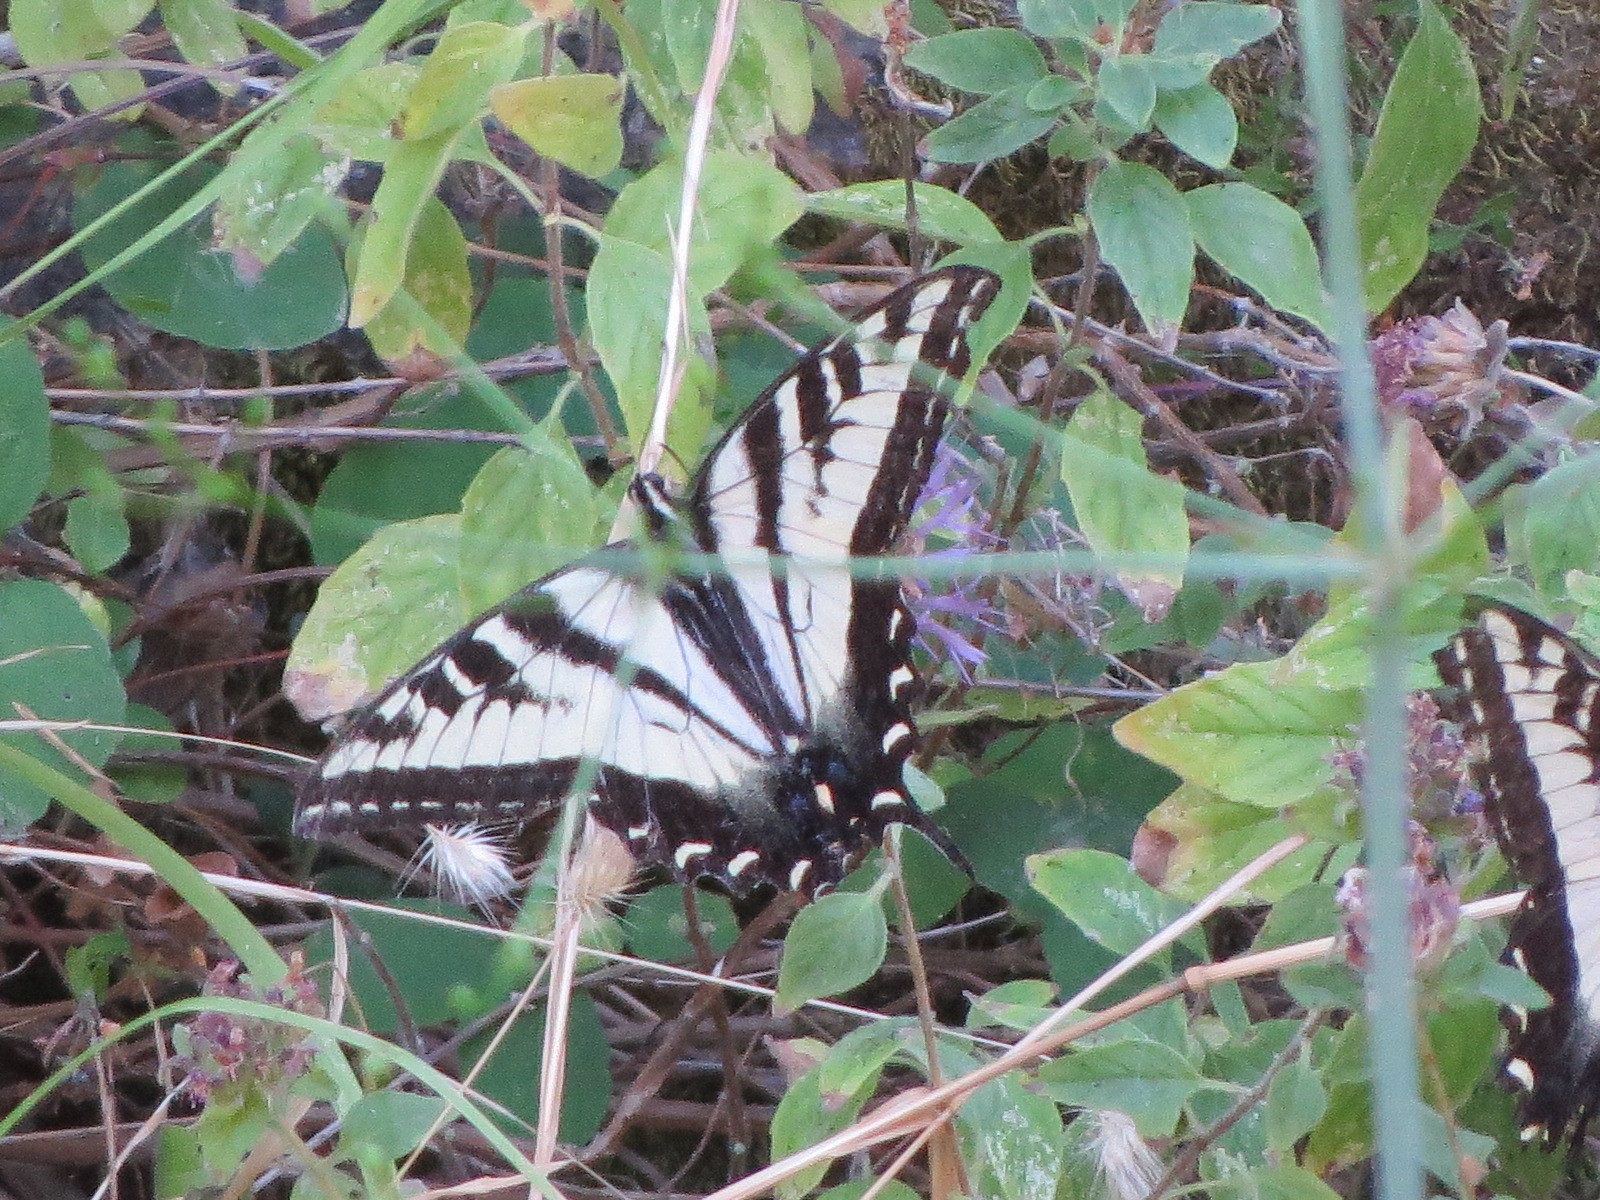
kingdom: Animalia
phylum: Arthropoda
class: Insecta
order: Lepidoptera
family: Papilionidae
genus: Papilio
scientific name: Papilio eurymedon
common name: Pale tiger swallowtail
